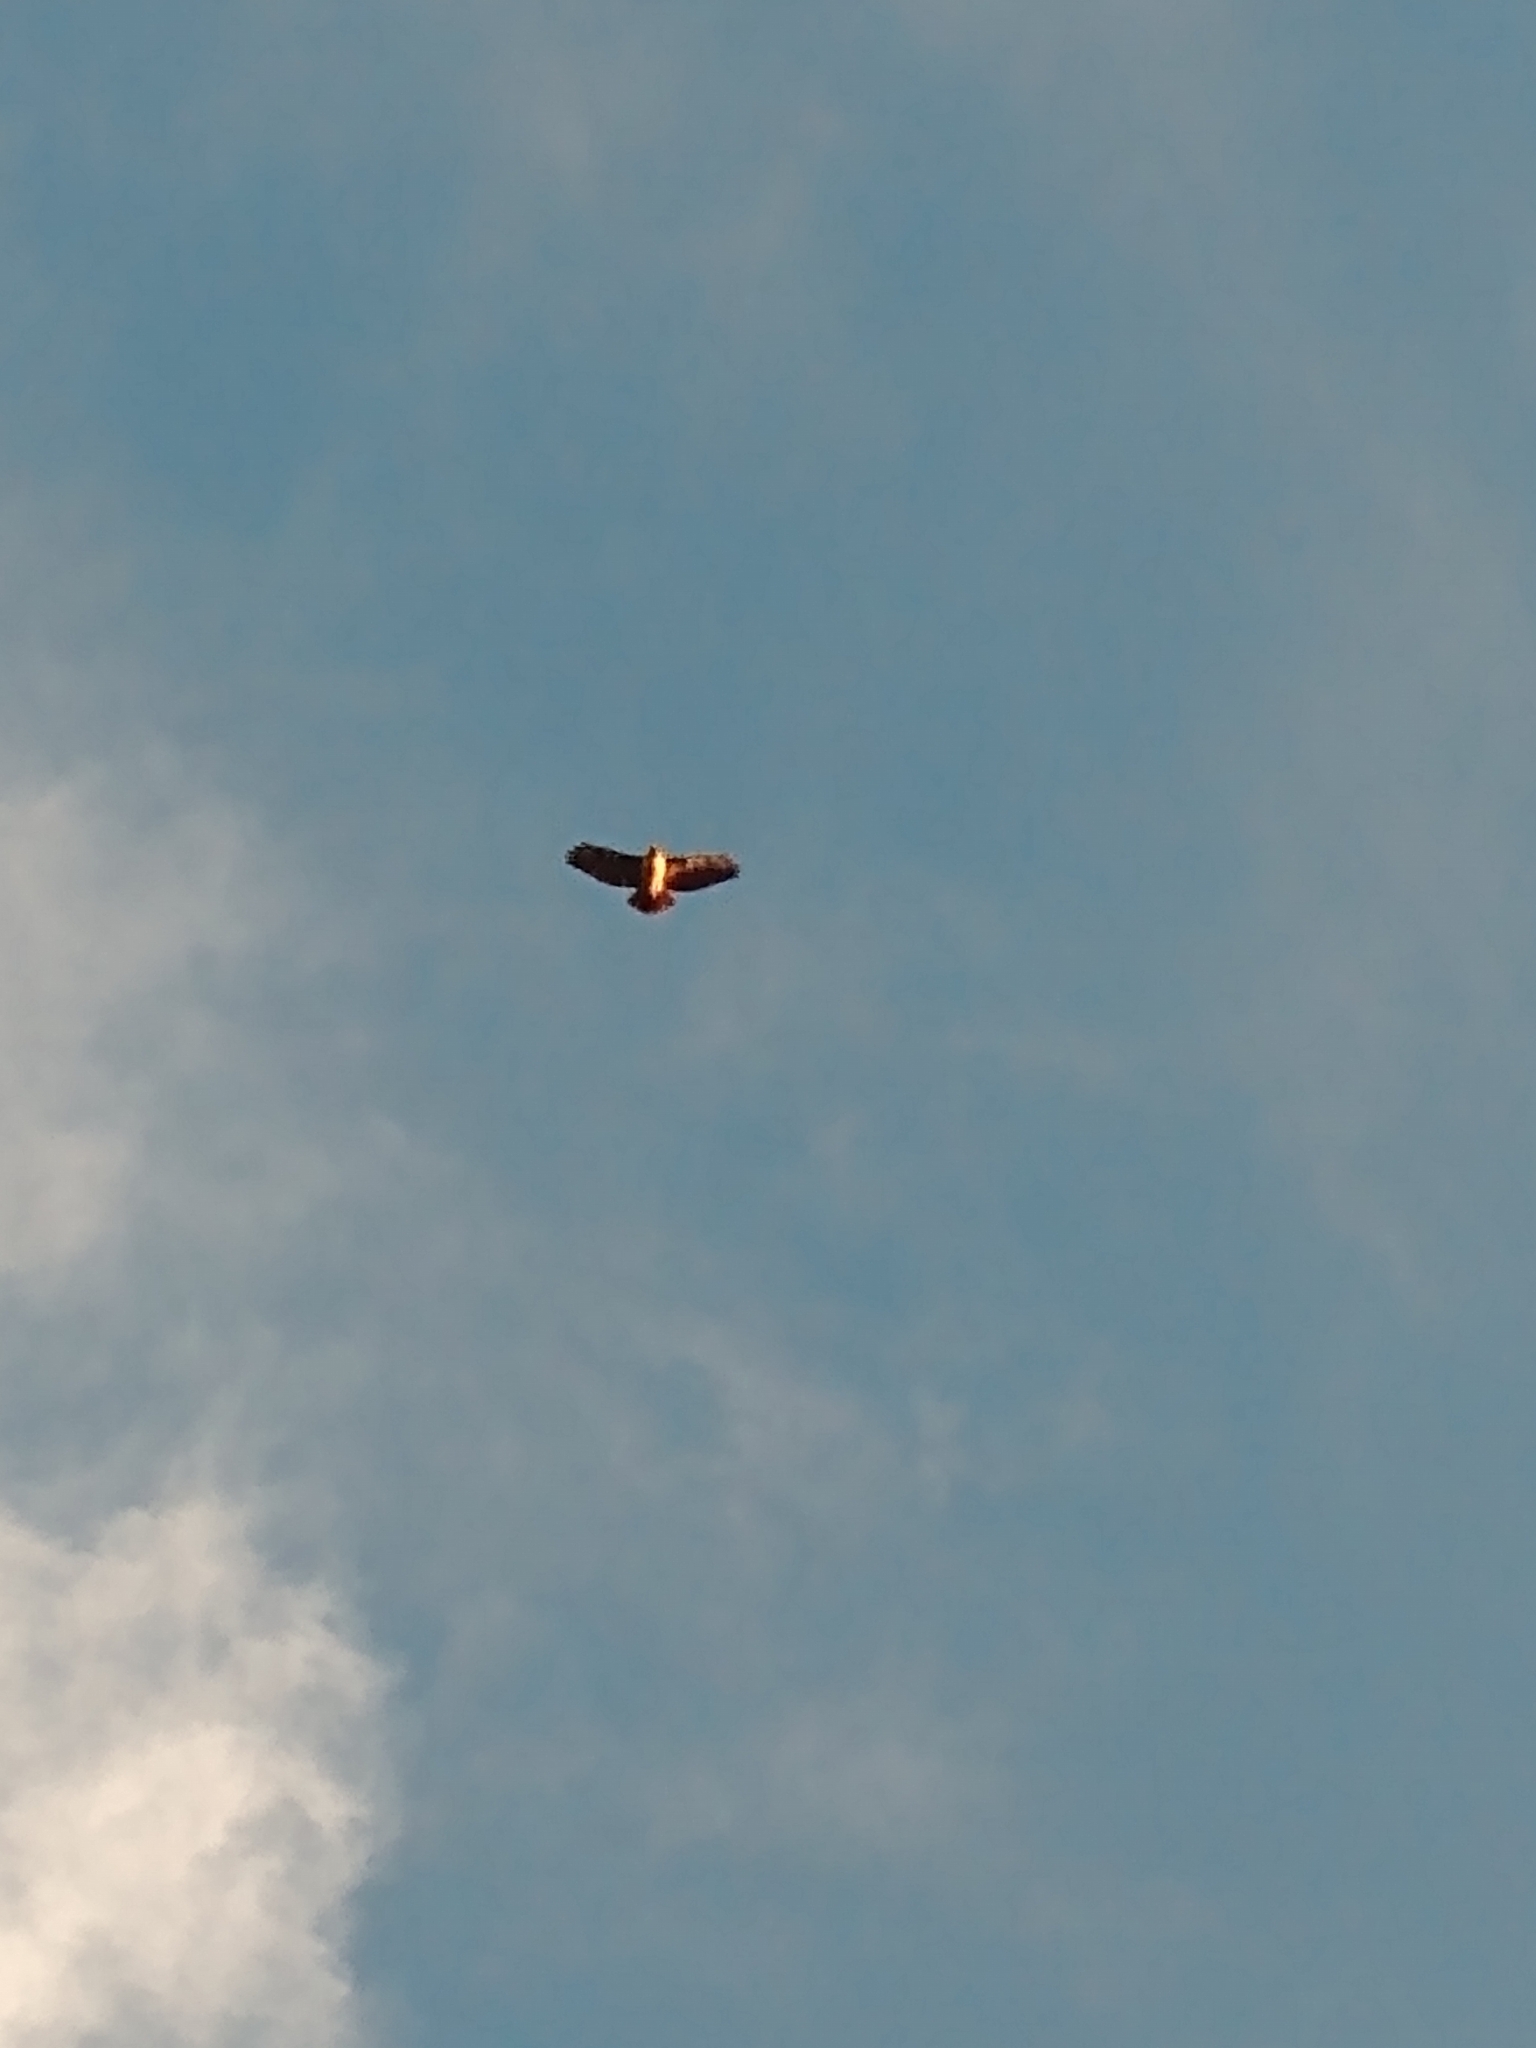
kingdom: Animalia
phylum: Chordata
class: Aves
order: Accipitriformes
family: Accipitridae
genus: Buteo
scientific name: Buteo jamaicensis
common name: Red-tailed hawk
